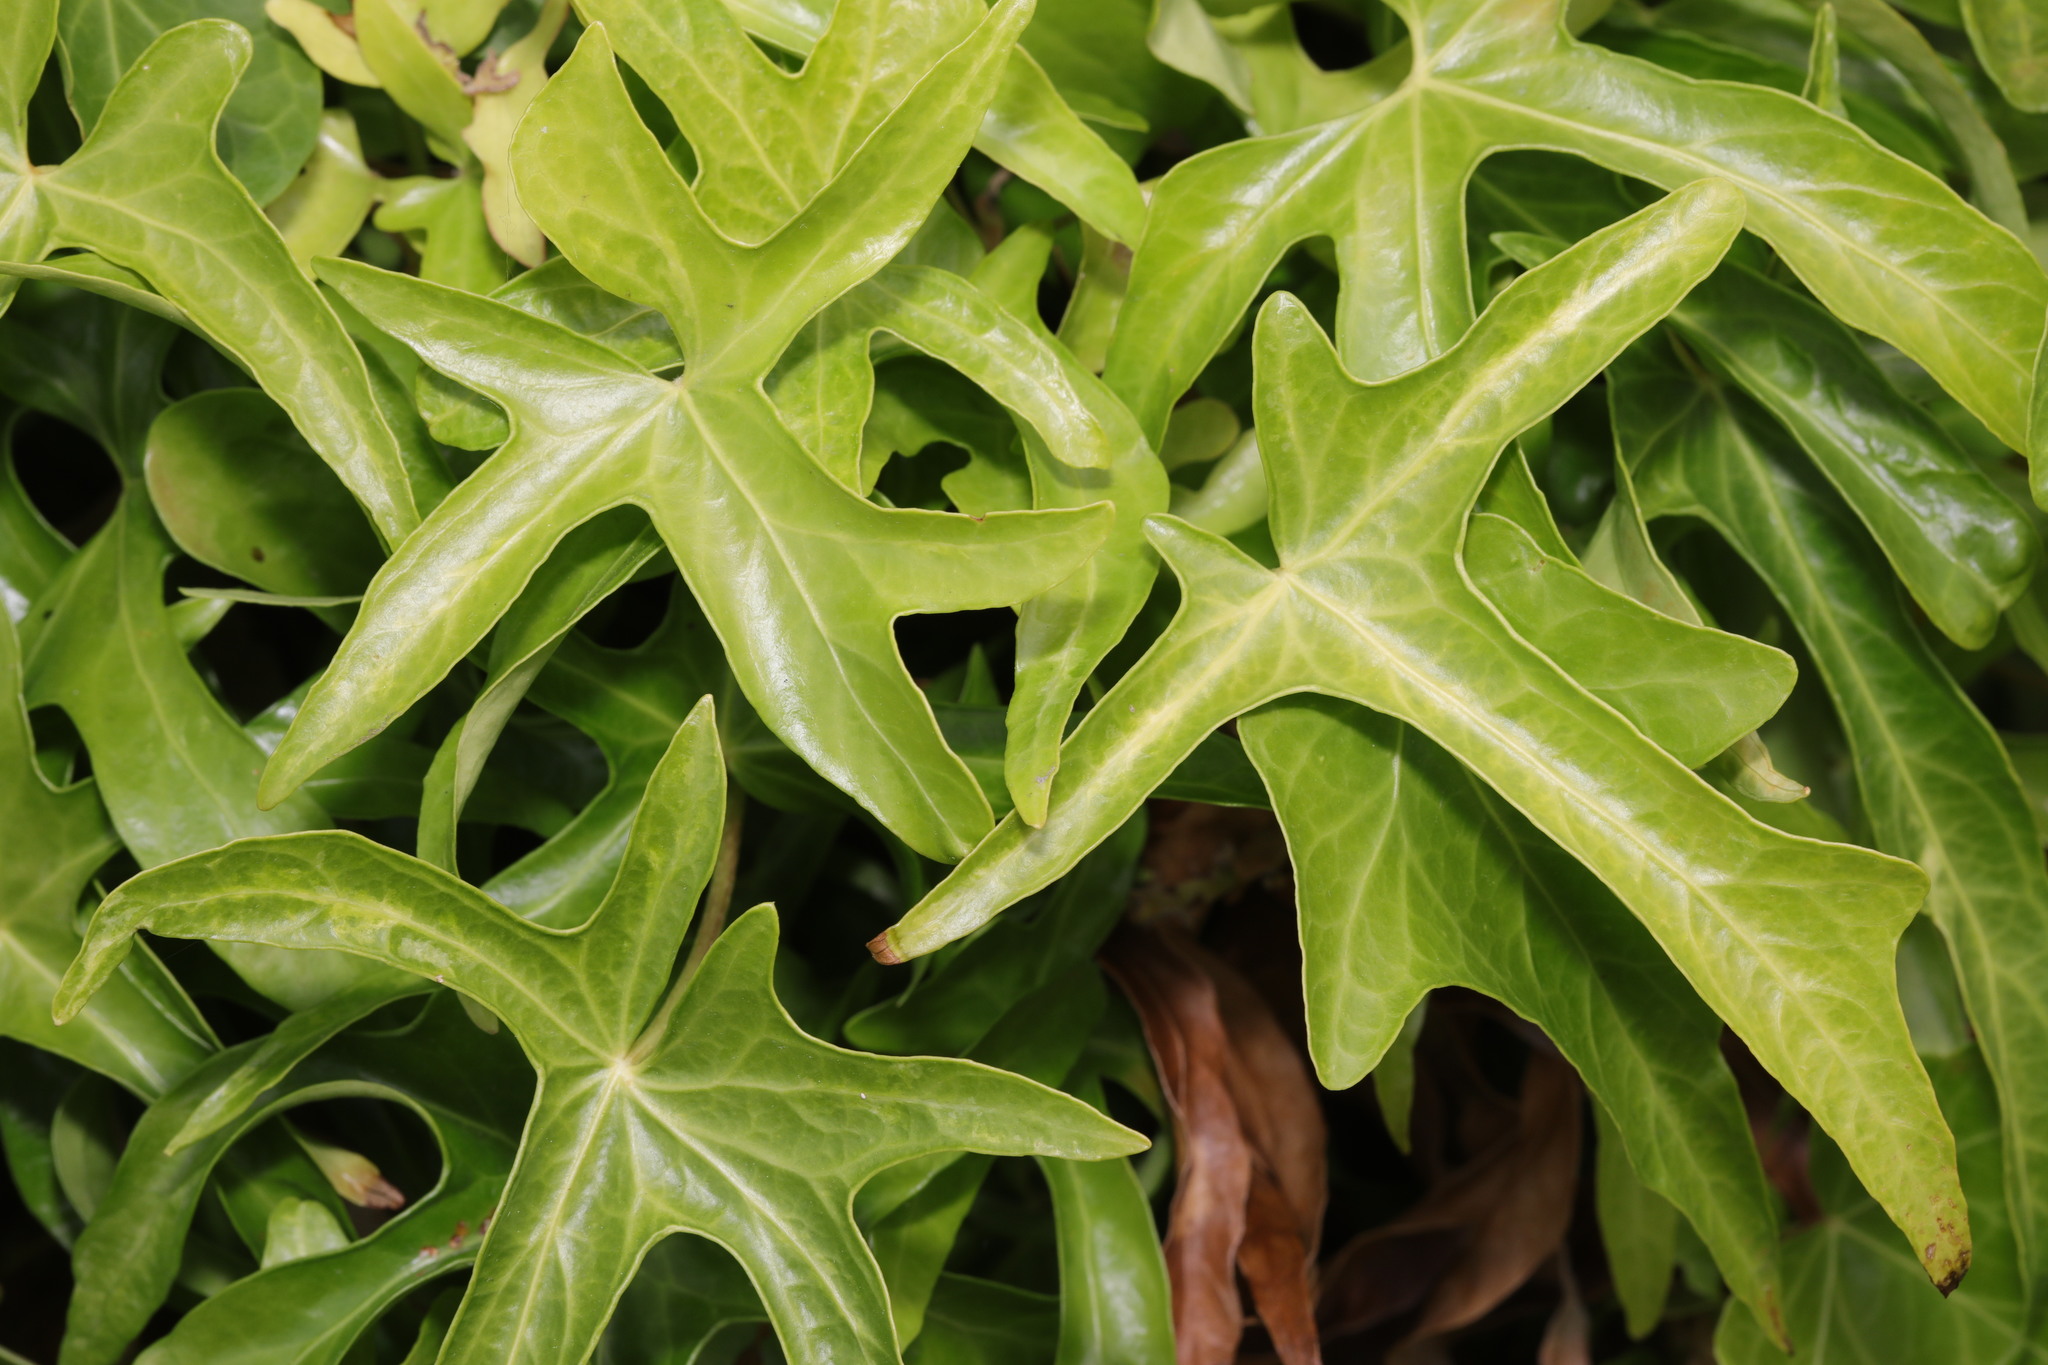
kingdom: Plantae
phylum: Tracheophyta
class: Magnoliopsida
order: Apiales
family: Araliaceae
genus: Hedera
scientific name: Hedera helix
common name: Ivy
